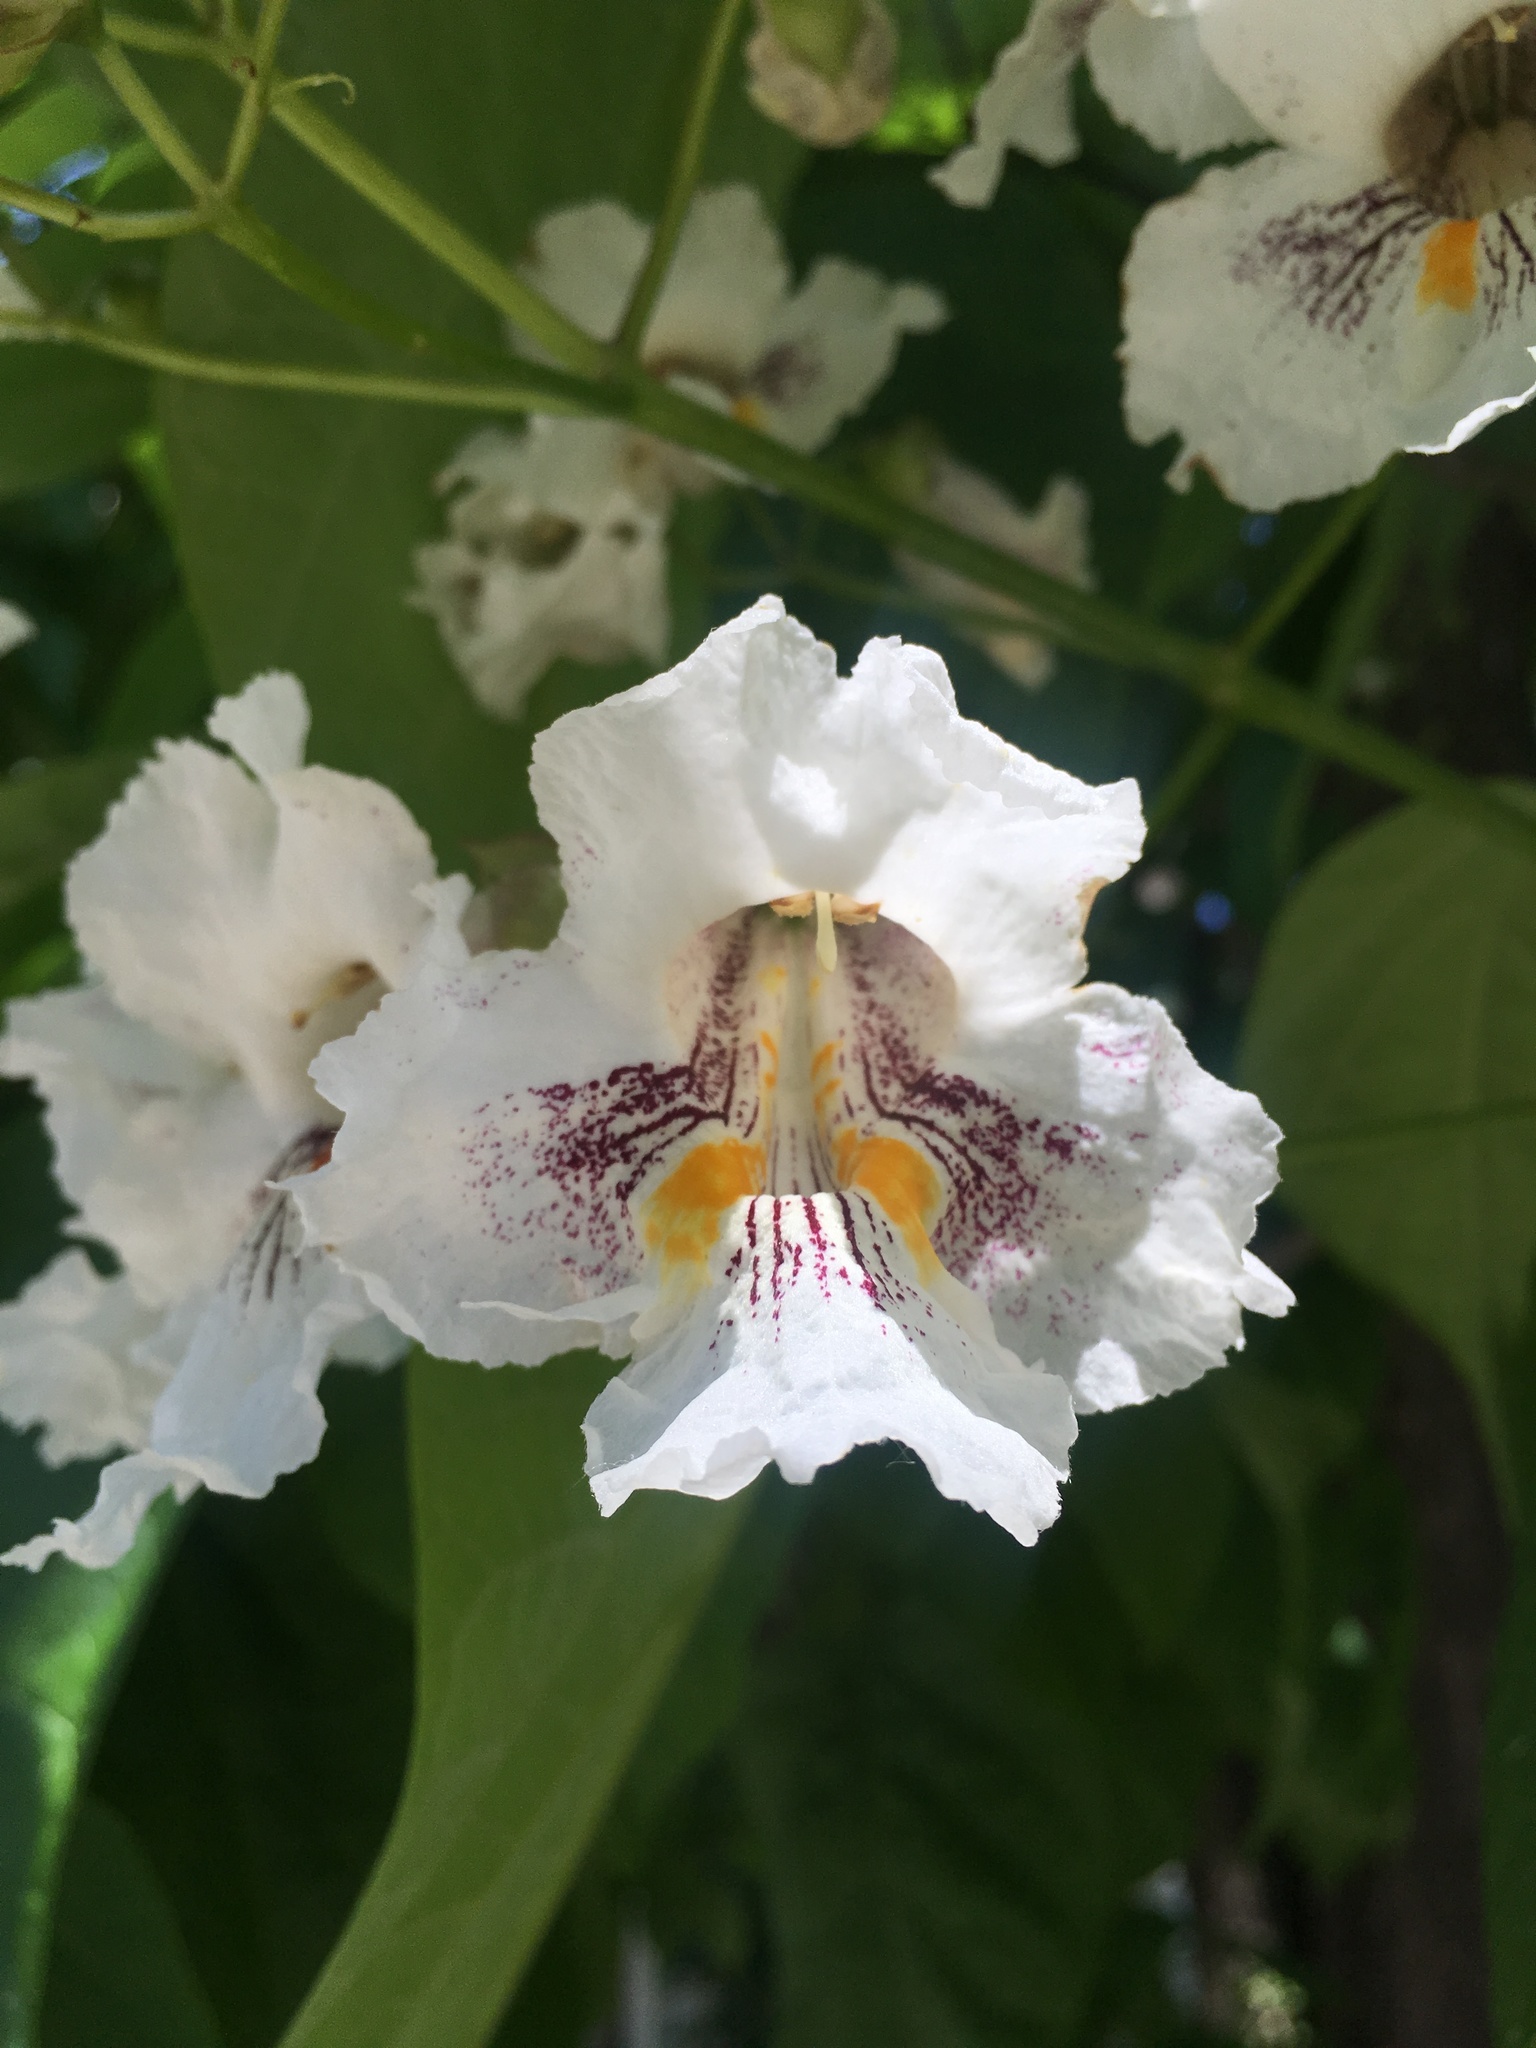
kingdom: Plantae
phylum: Tracheophyta
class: Magnoliopsida
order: Lamiales
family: Bignoniaceae
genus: Catalpa
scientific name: Catalpa speciosa
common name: Northern catalpa
